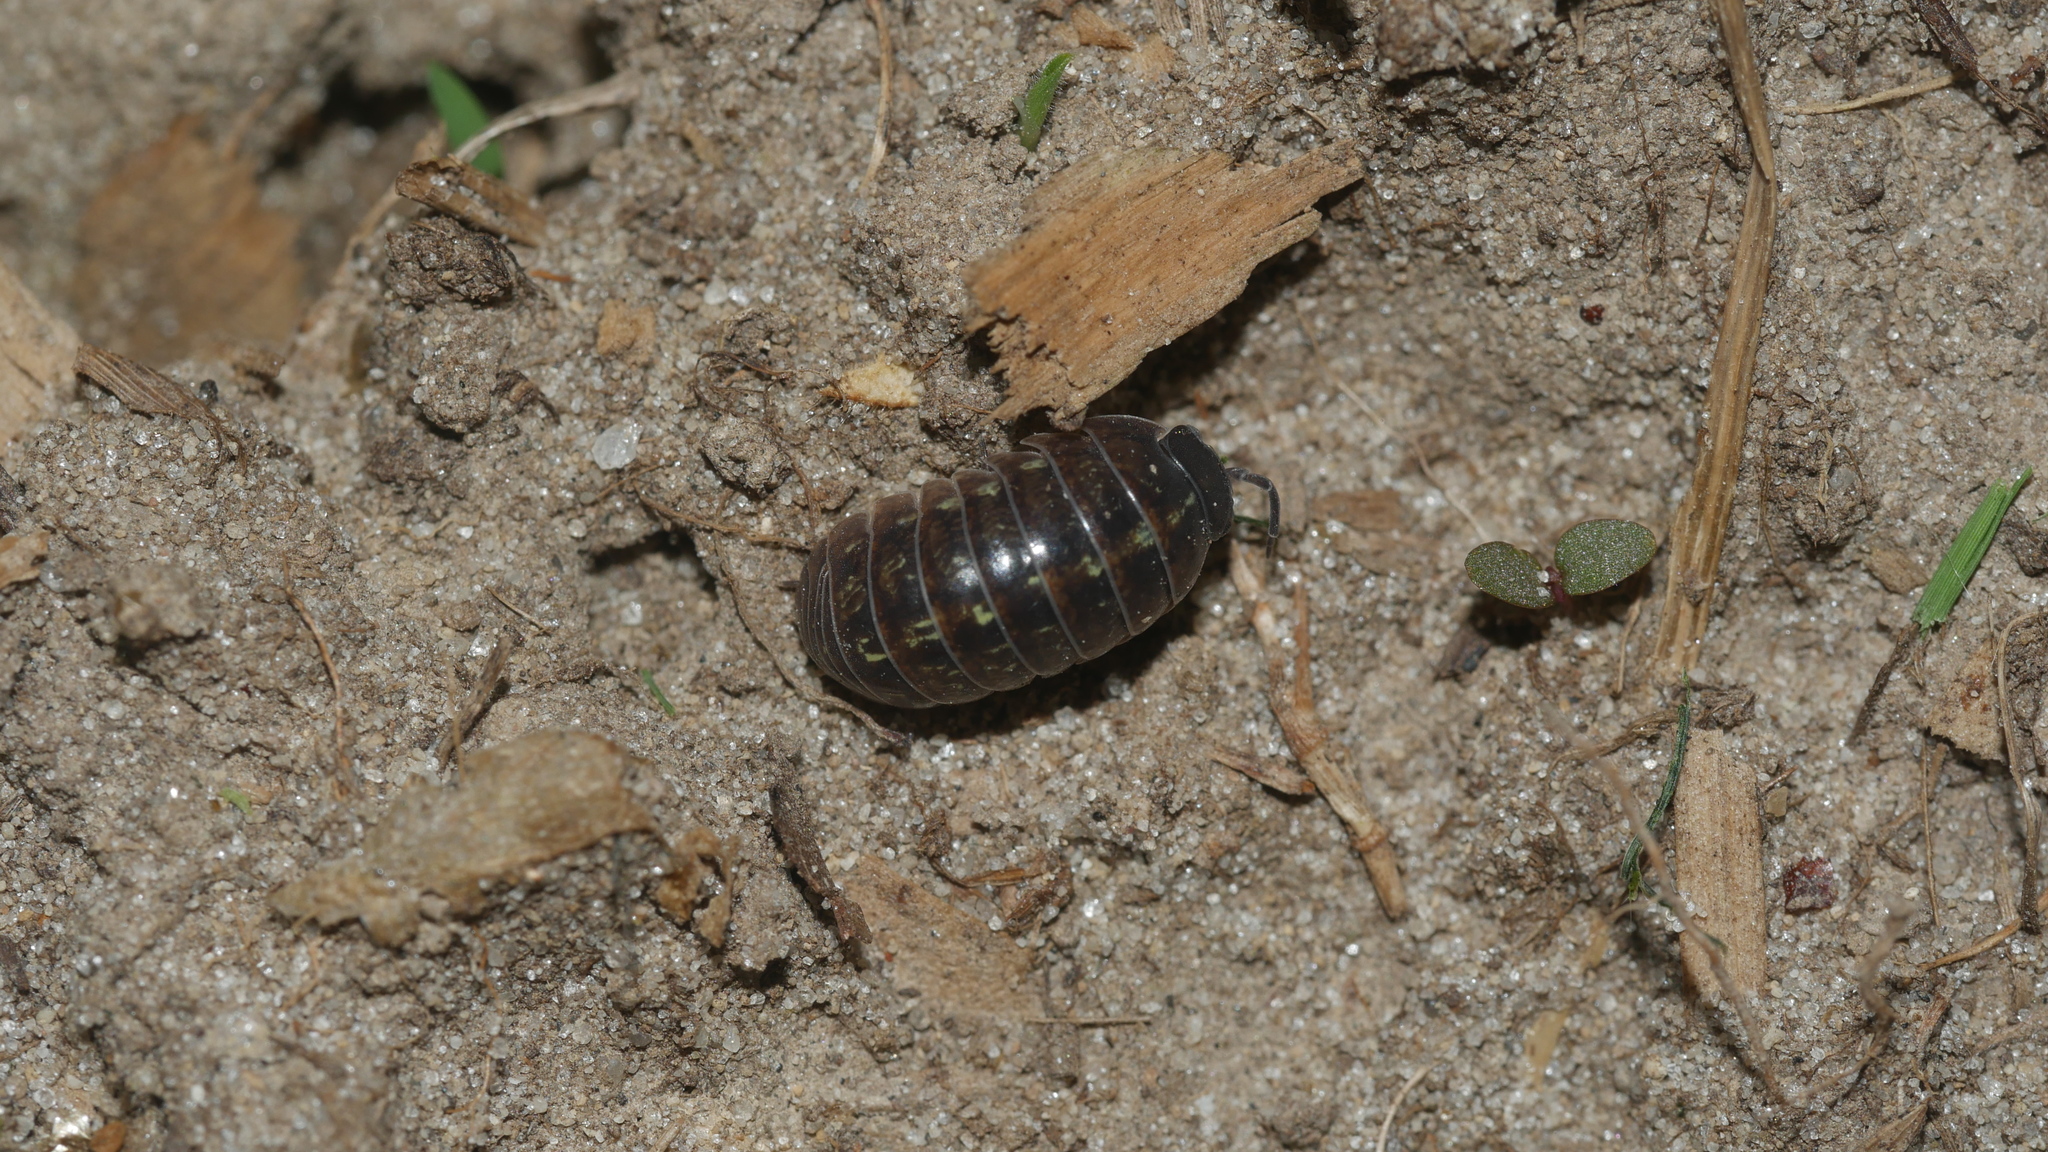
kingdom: Animalia
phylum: Arthropoda
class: Malacostraca
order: Isopoda
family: Armadillidiidae
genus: Armadillidium
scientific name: Armadillidium vulgare
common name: Common pill woodlouse
